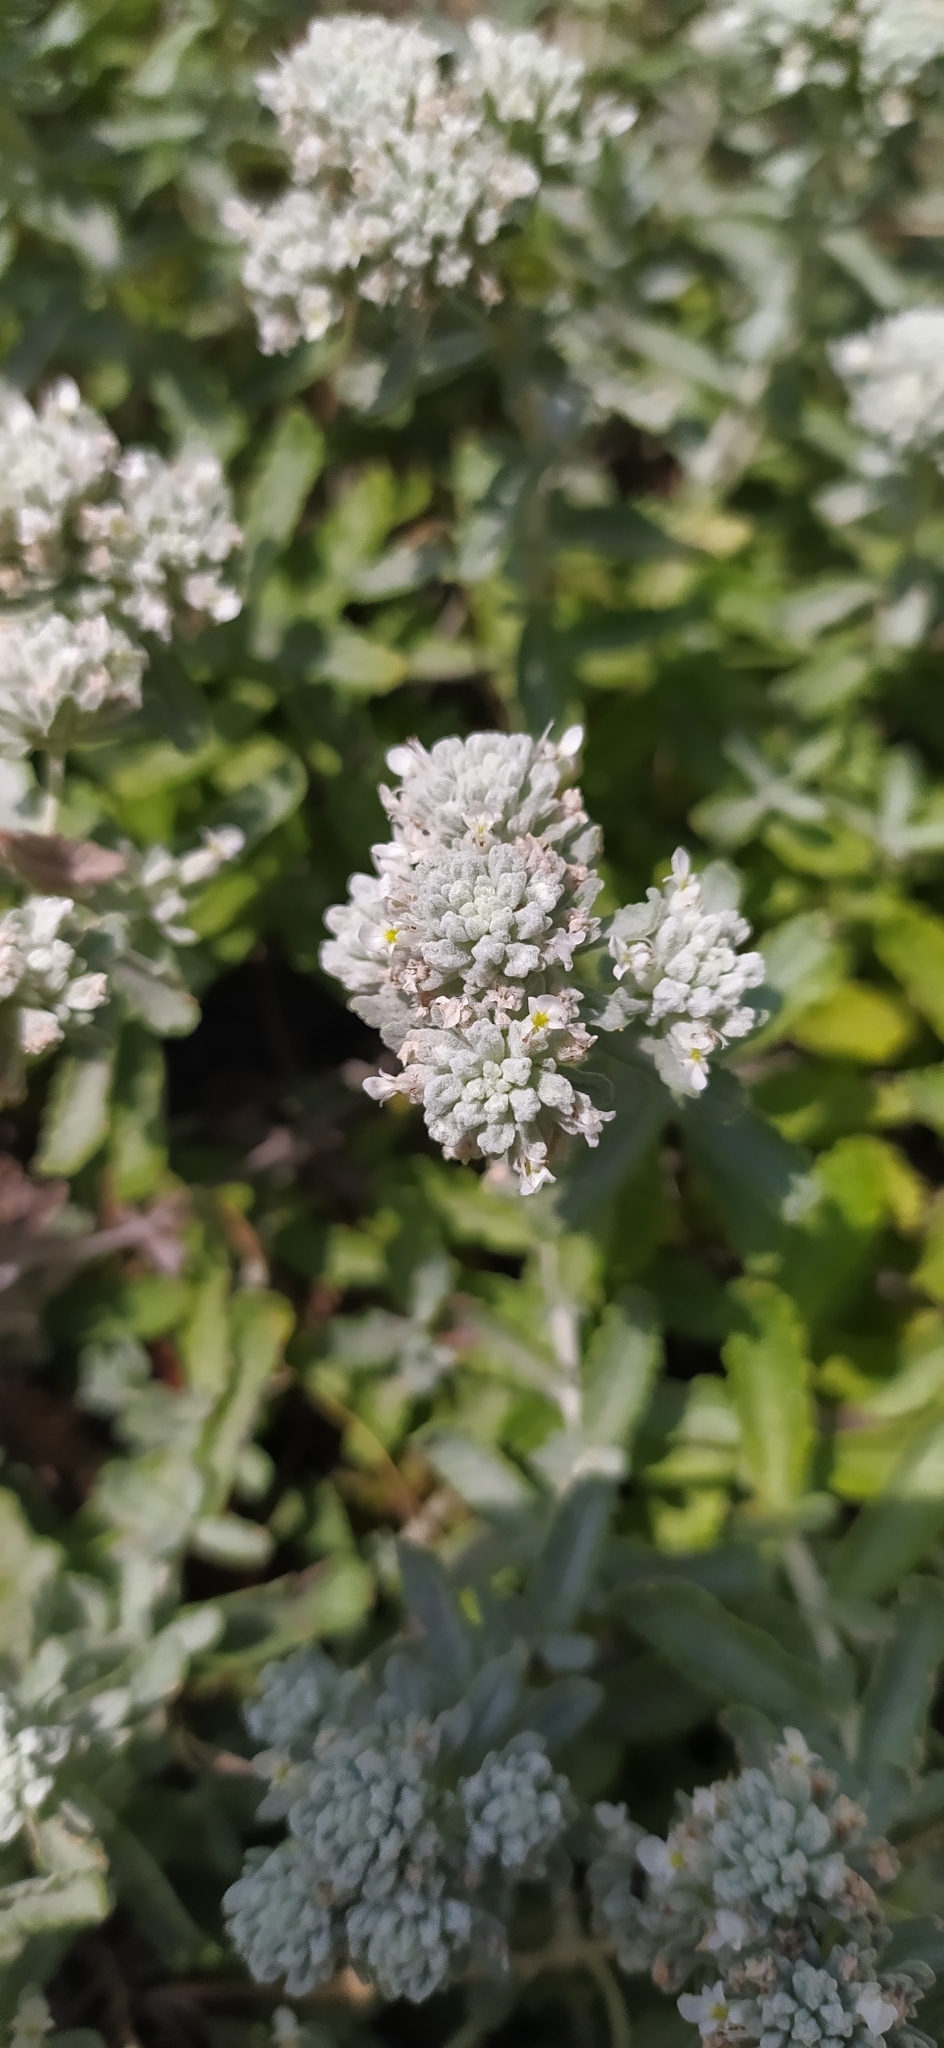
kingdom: Plantae
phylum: Tracheophyta
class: Magnoliopsida
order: Lamiales
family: Lamiaceae
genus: Teucrium
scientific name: Teucrium polium
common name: Poley
